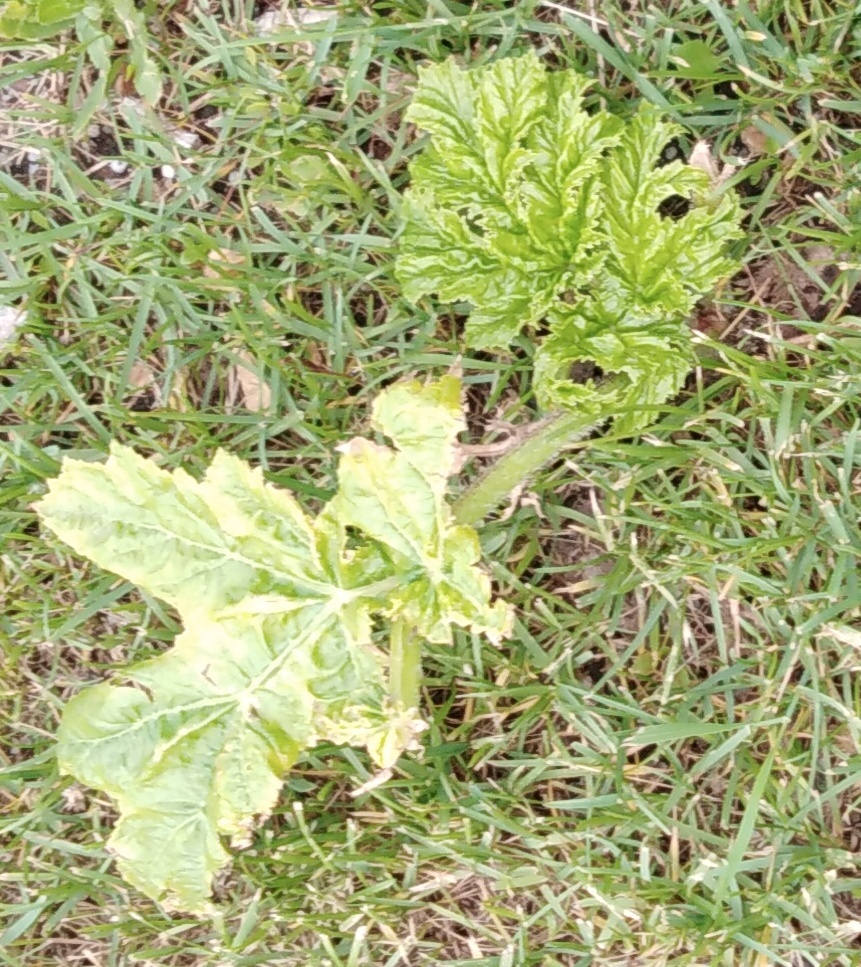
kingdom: Plantae
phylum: Tracheophyta
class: Magnoliopsida
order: Apiales
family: Apiaceae
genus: Heracleum
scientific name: Heracleum sosnowskyi
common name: Sosnowsky's hogweed
